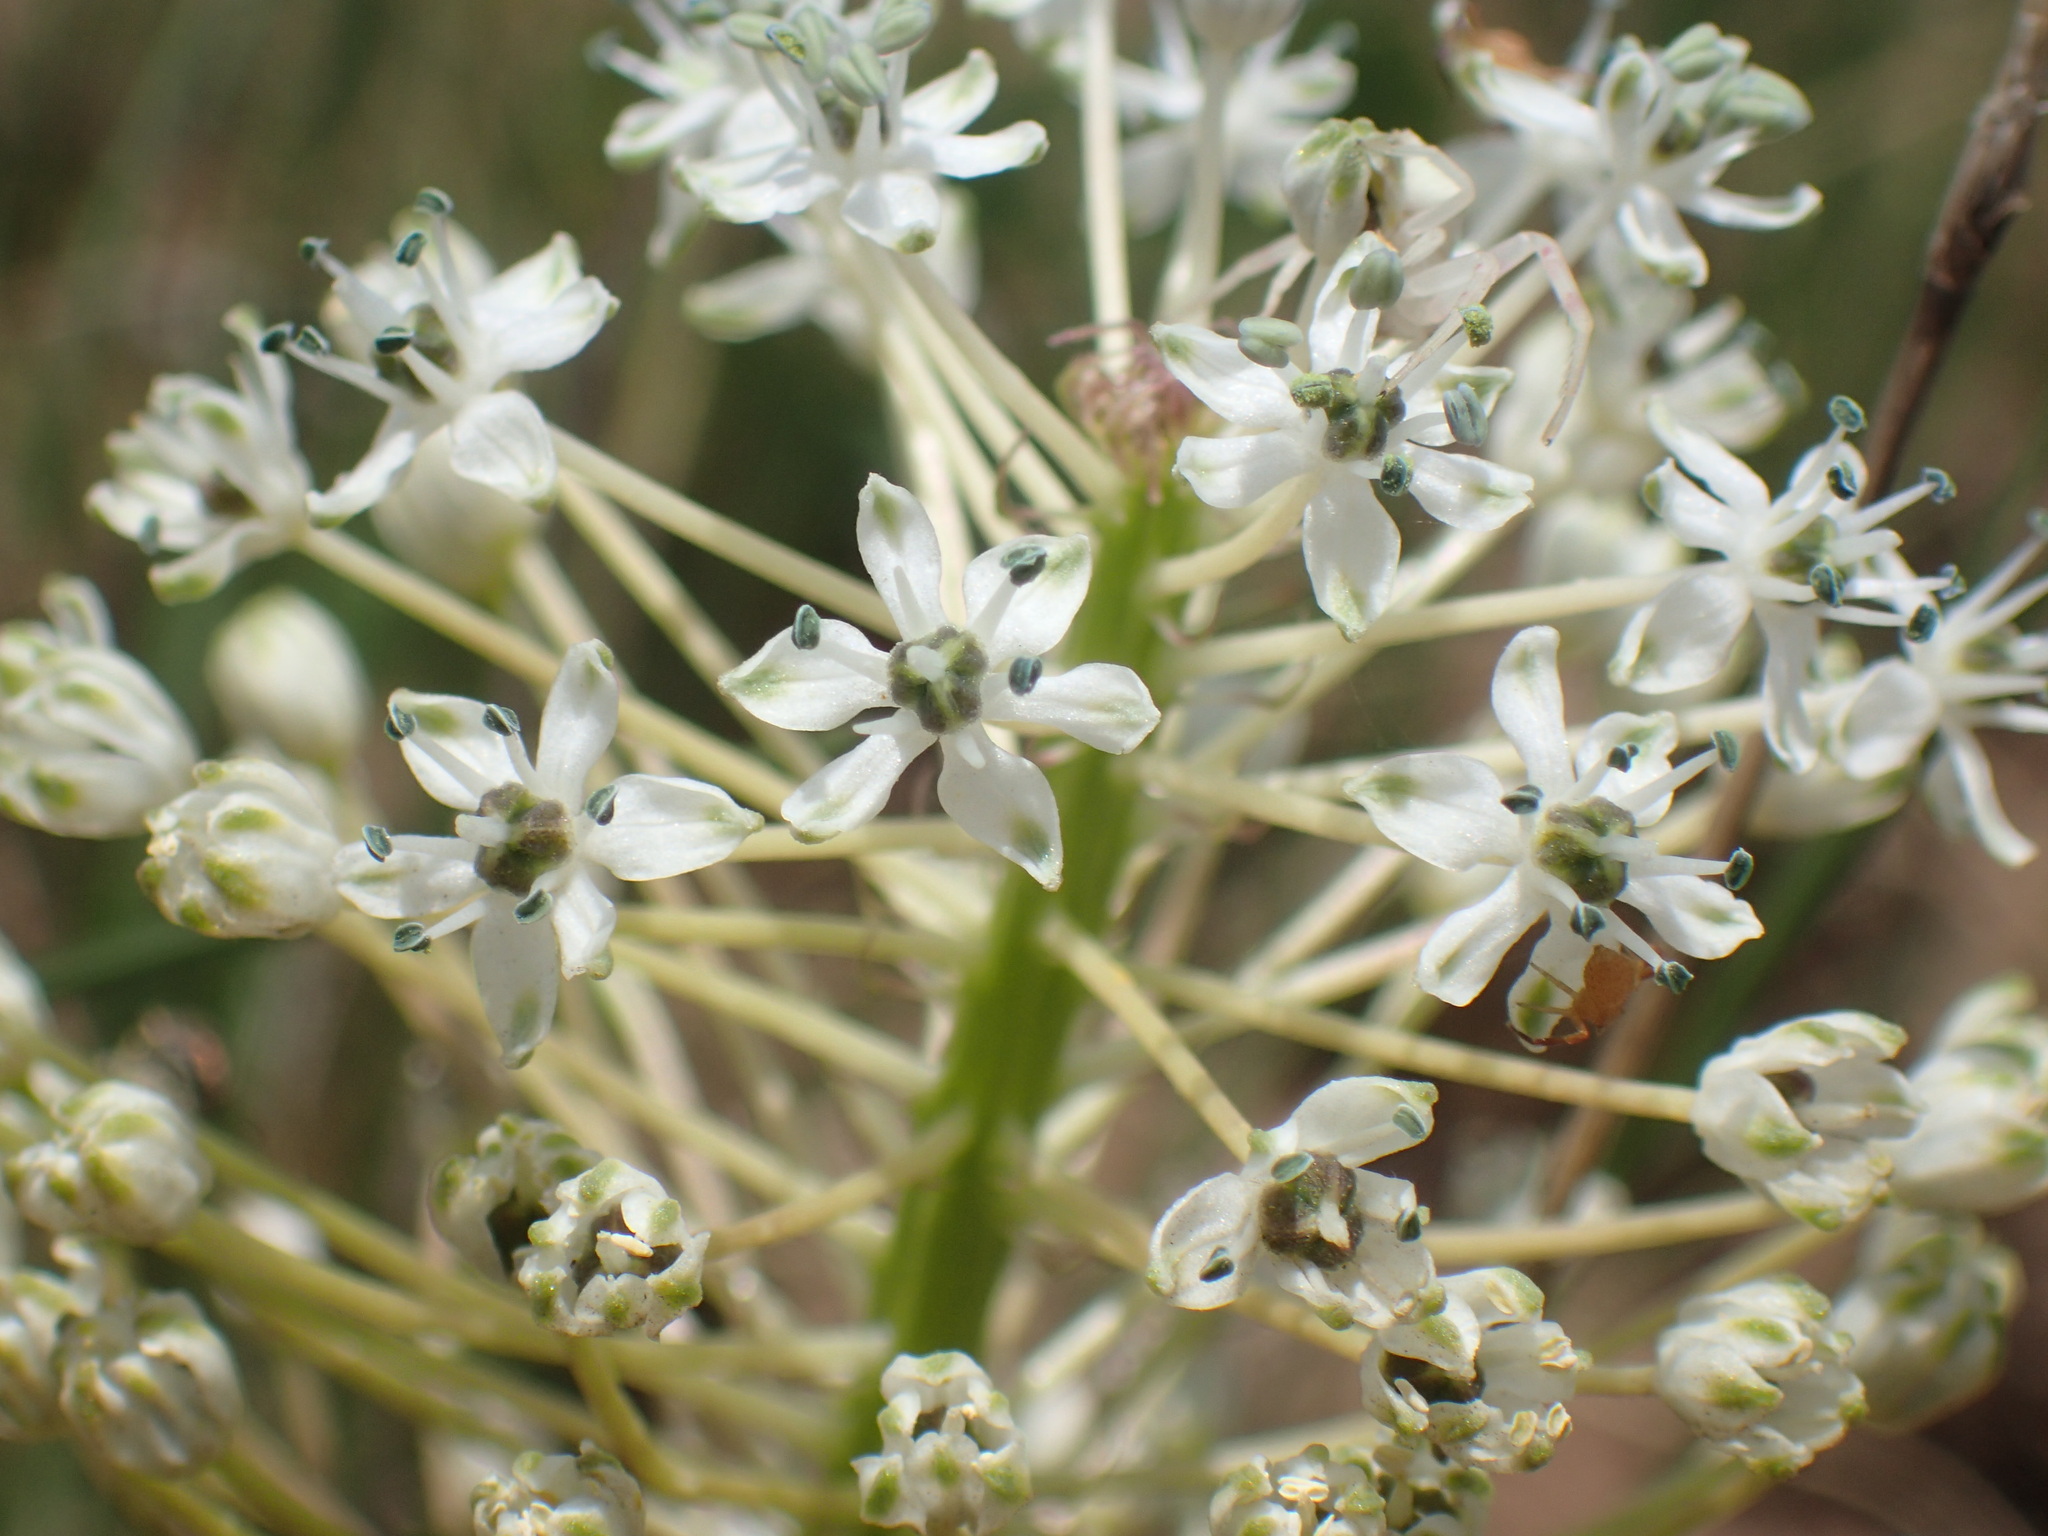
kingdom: Plantae
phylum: Tracheophyta
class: Liliopsida
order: Asparagales
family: Asparagaceae
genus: Schizocarphus
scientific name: Schizocarphus nervosus
